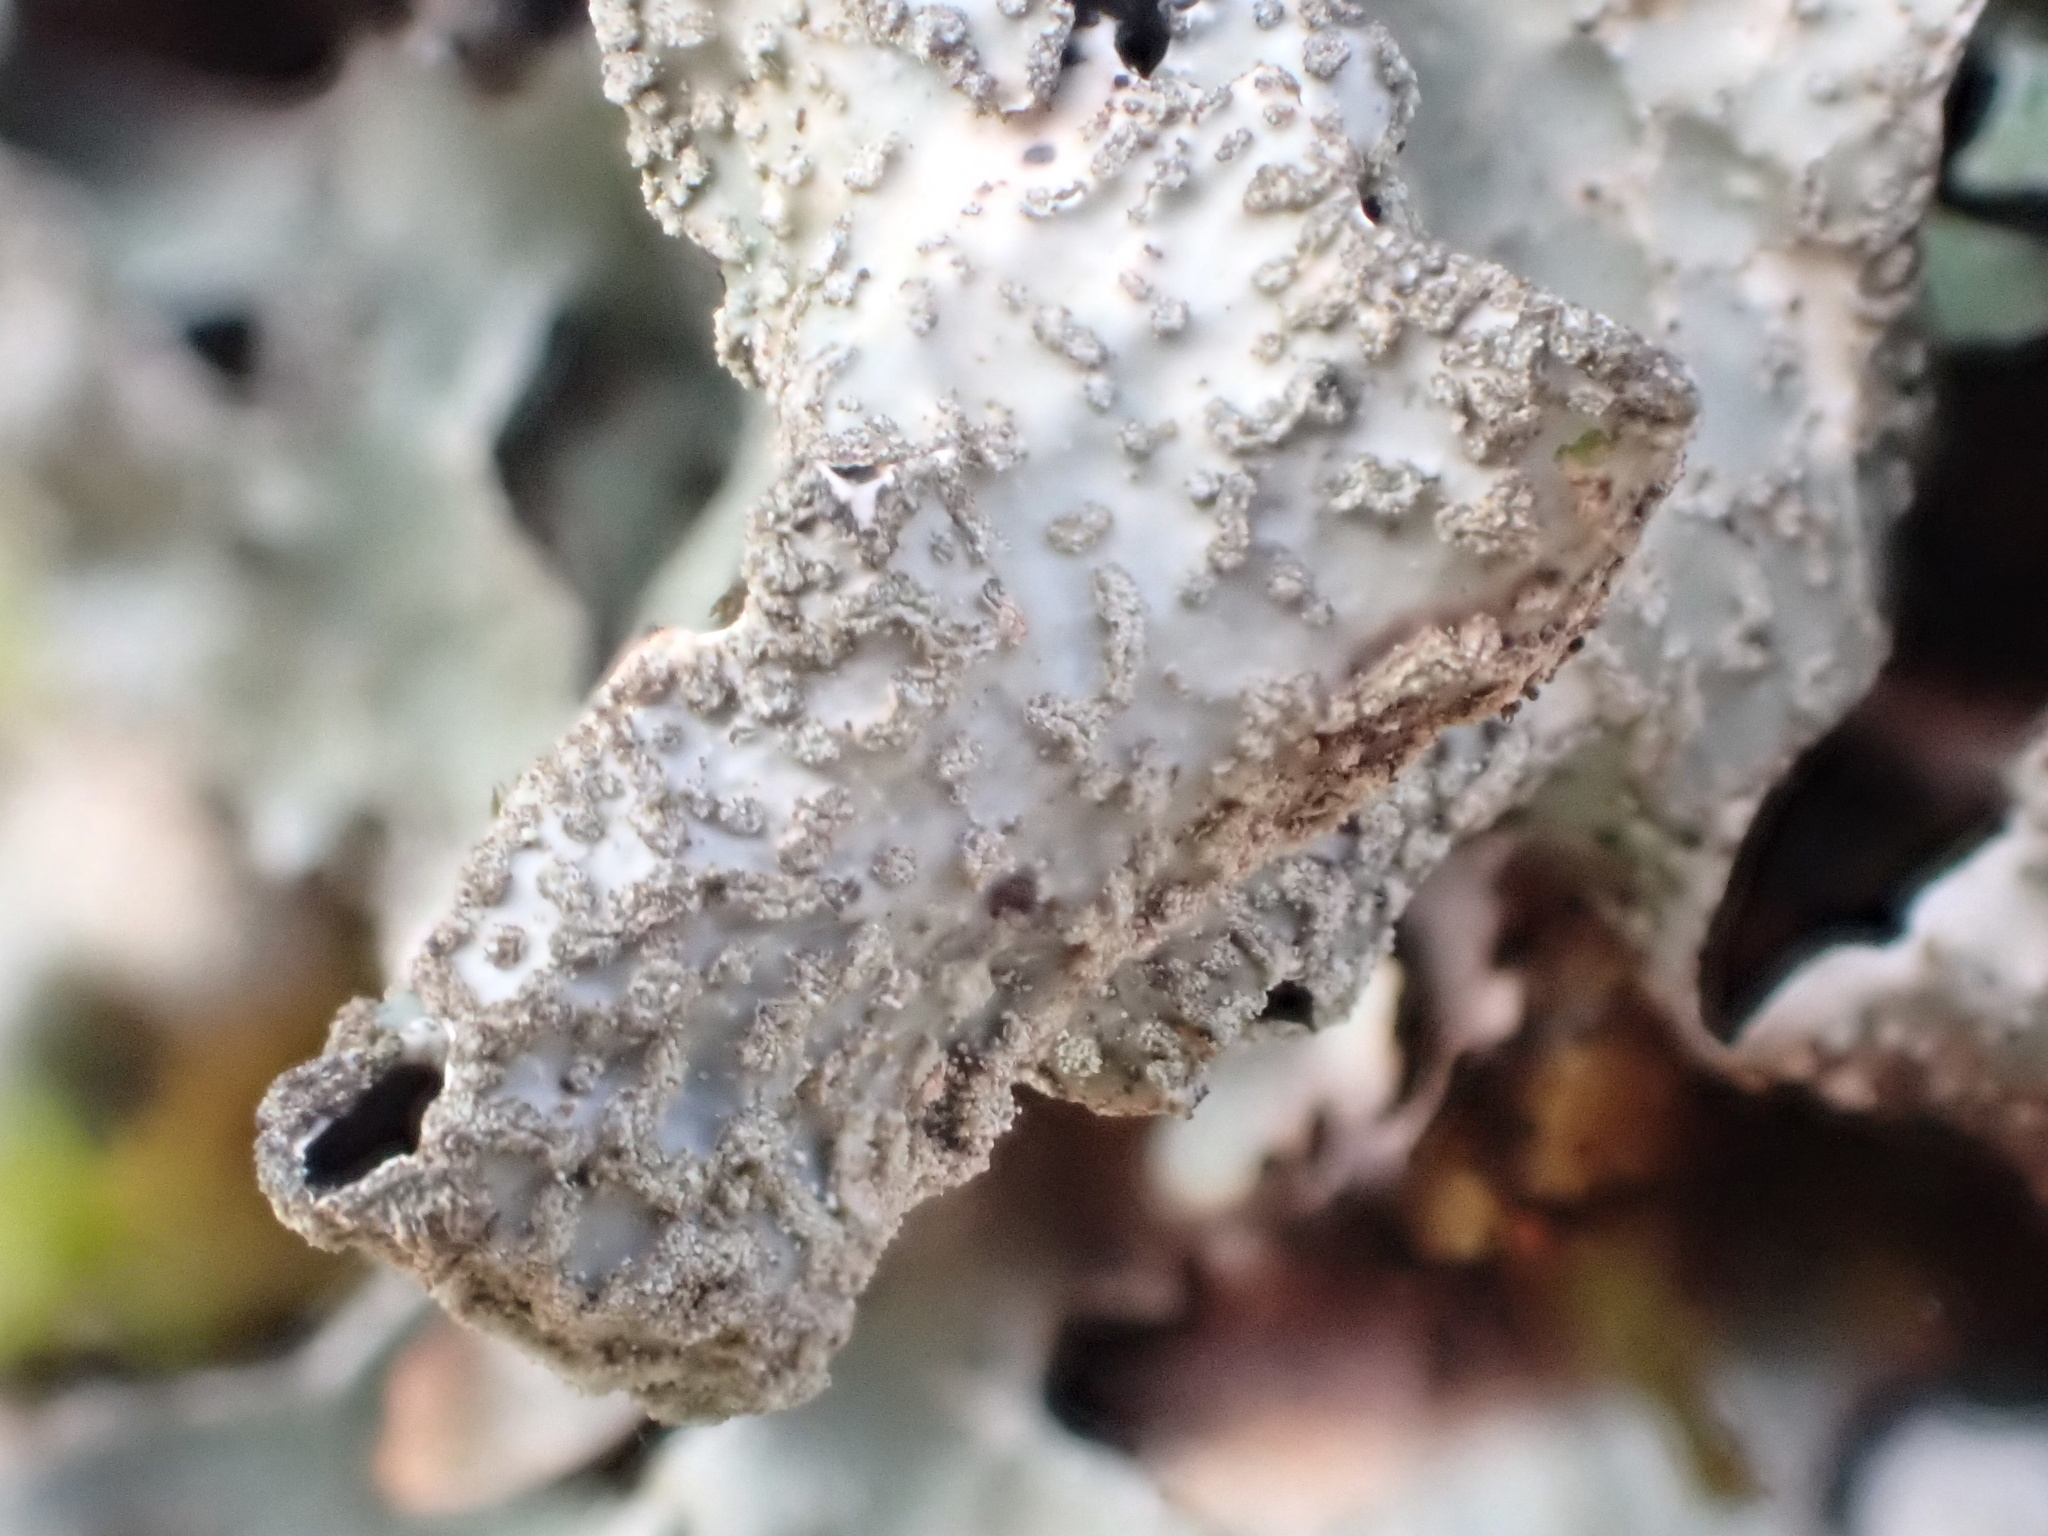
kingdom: Fungi
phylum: Ascomycota
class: Lecanoromycetes
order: Lecanorales
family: Parmeliaceae
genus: Parmelia
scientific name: Parmelia sulcata
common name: Netted shield lichen
